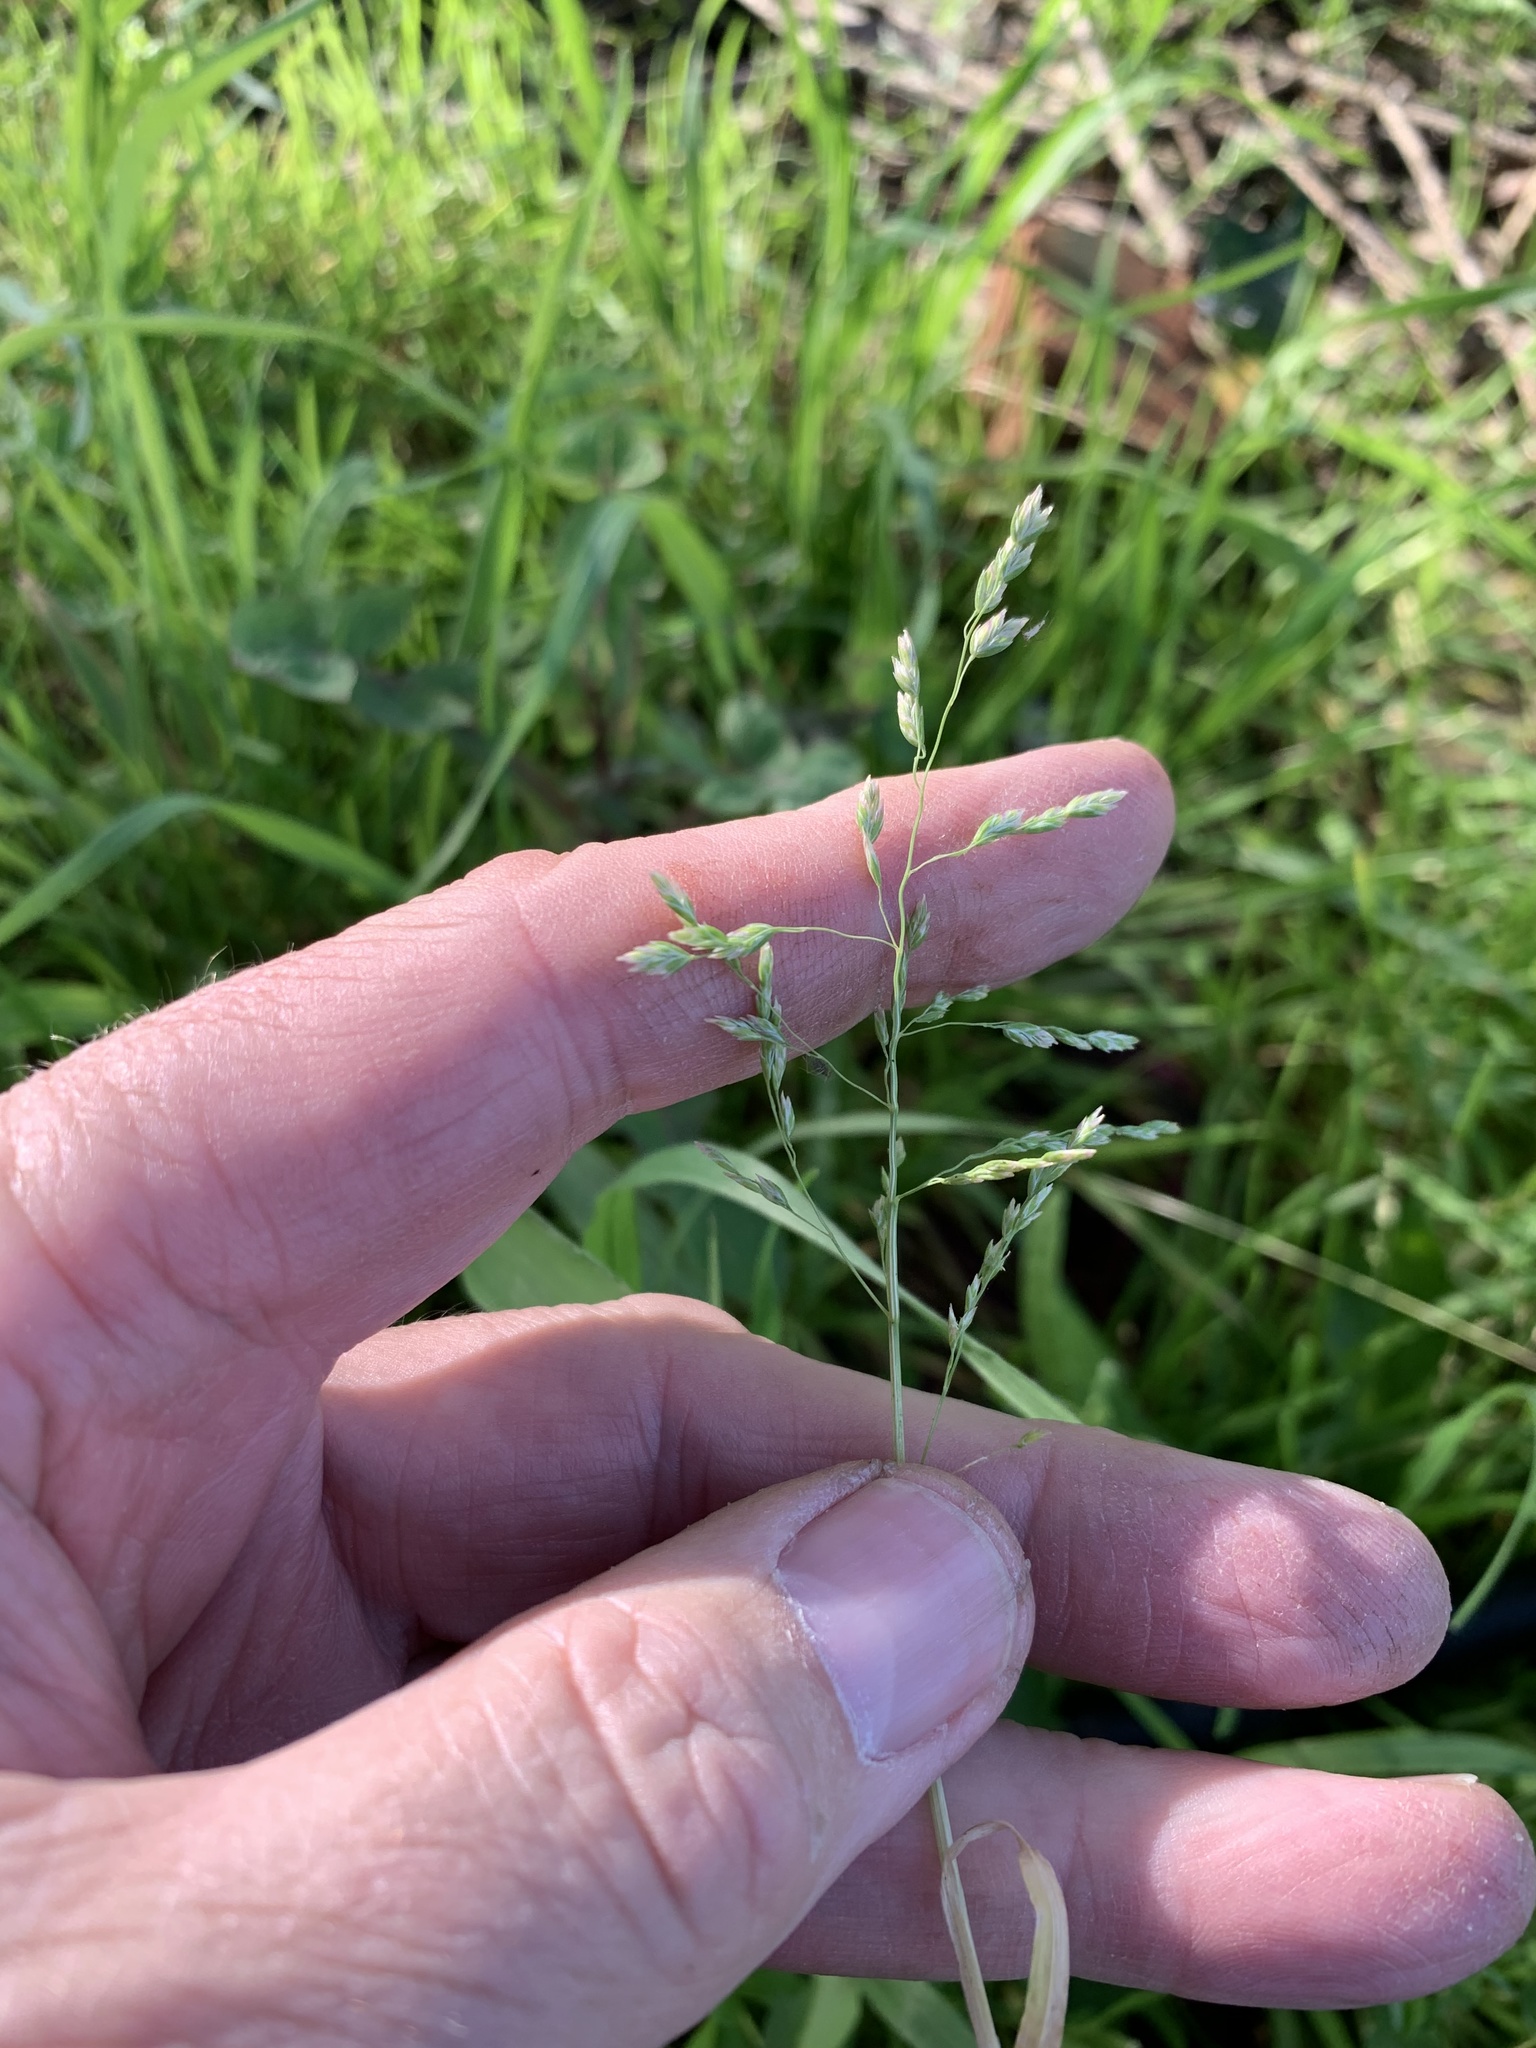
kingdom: Plantae
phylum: Tracheophyta
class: Liliopsida
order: Poales
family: Poaceae
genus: Poa
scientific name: Poa annua
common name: Annual bluegrass
